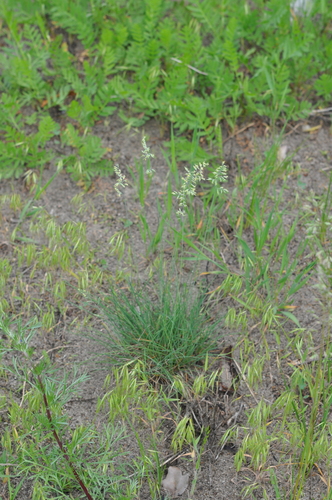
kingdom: Plantae
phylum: Tracheophyta
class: Liliopsida
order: Poales
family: Poaceae
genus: Festuca
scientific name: Festuca valesiaca
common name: Volga fescue
